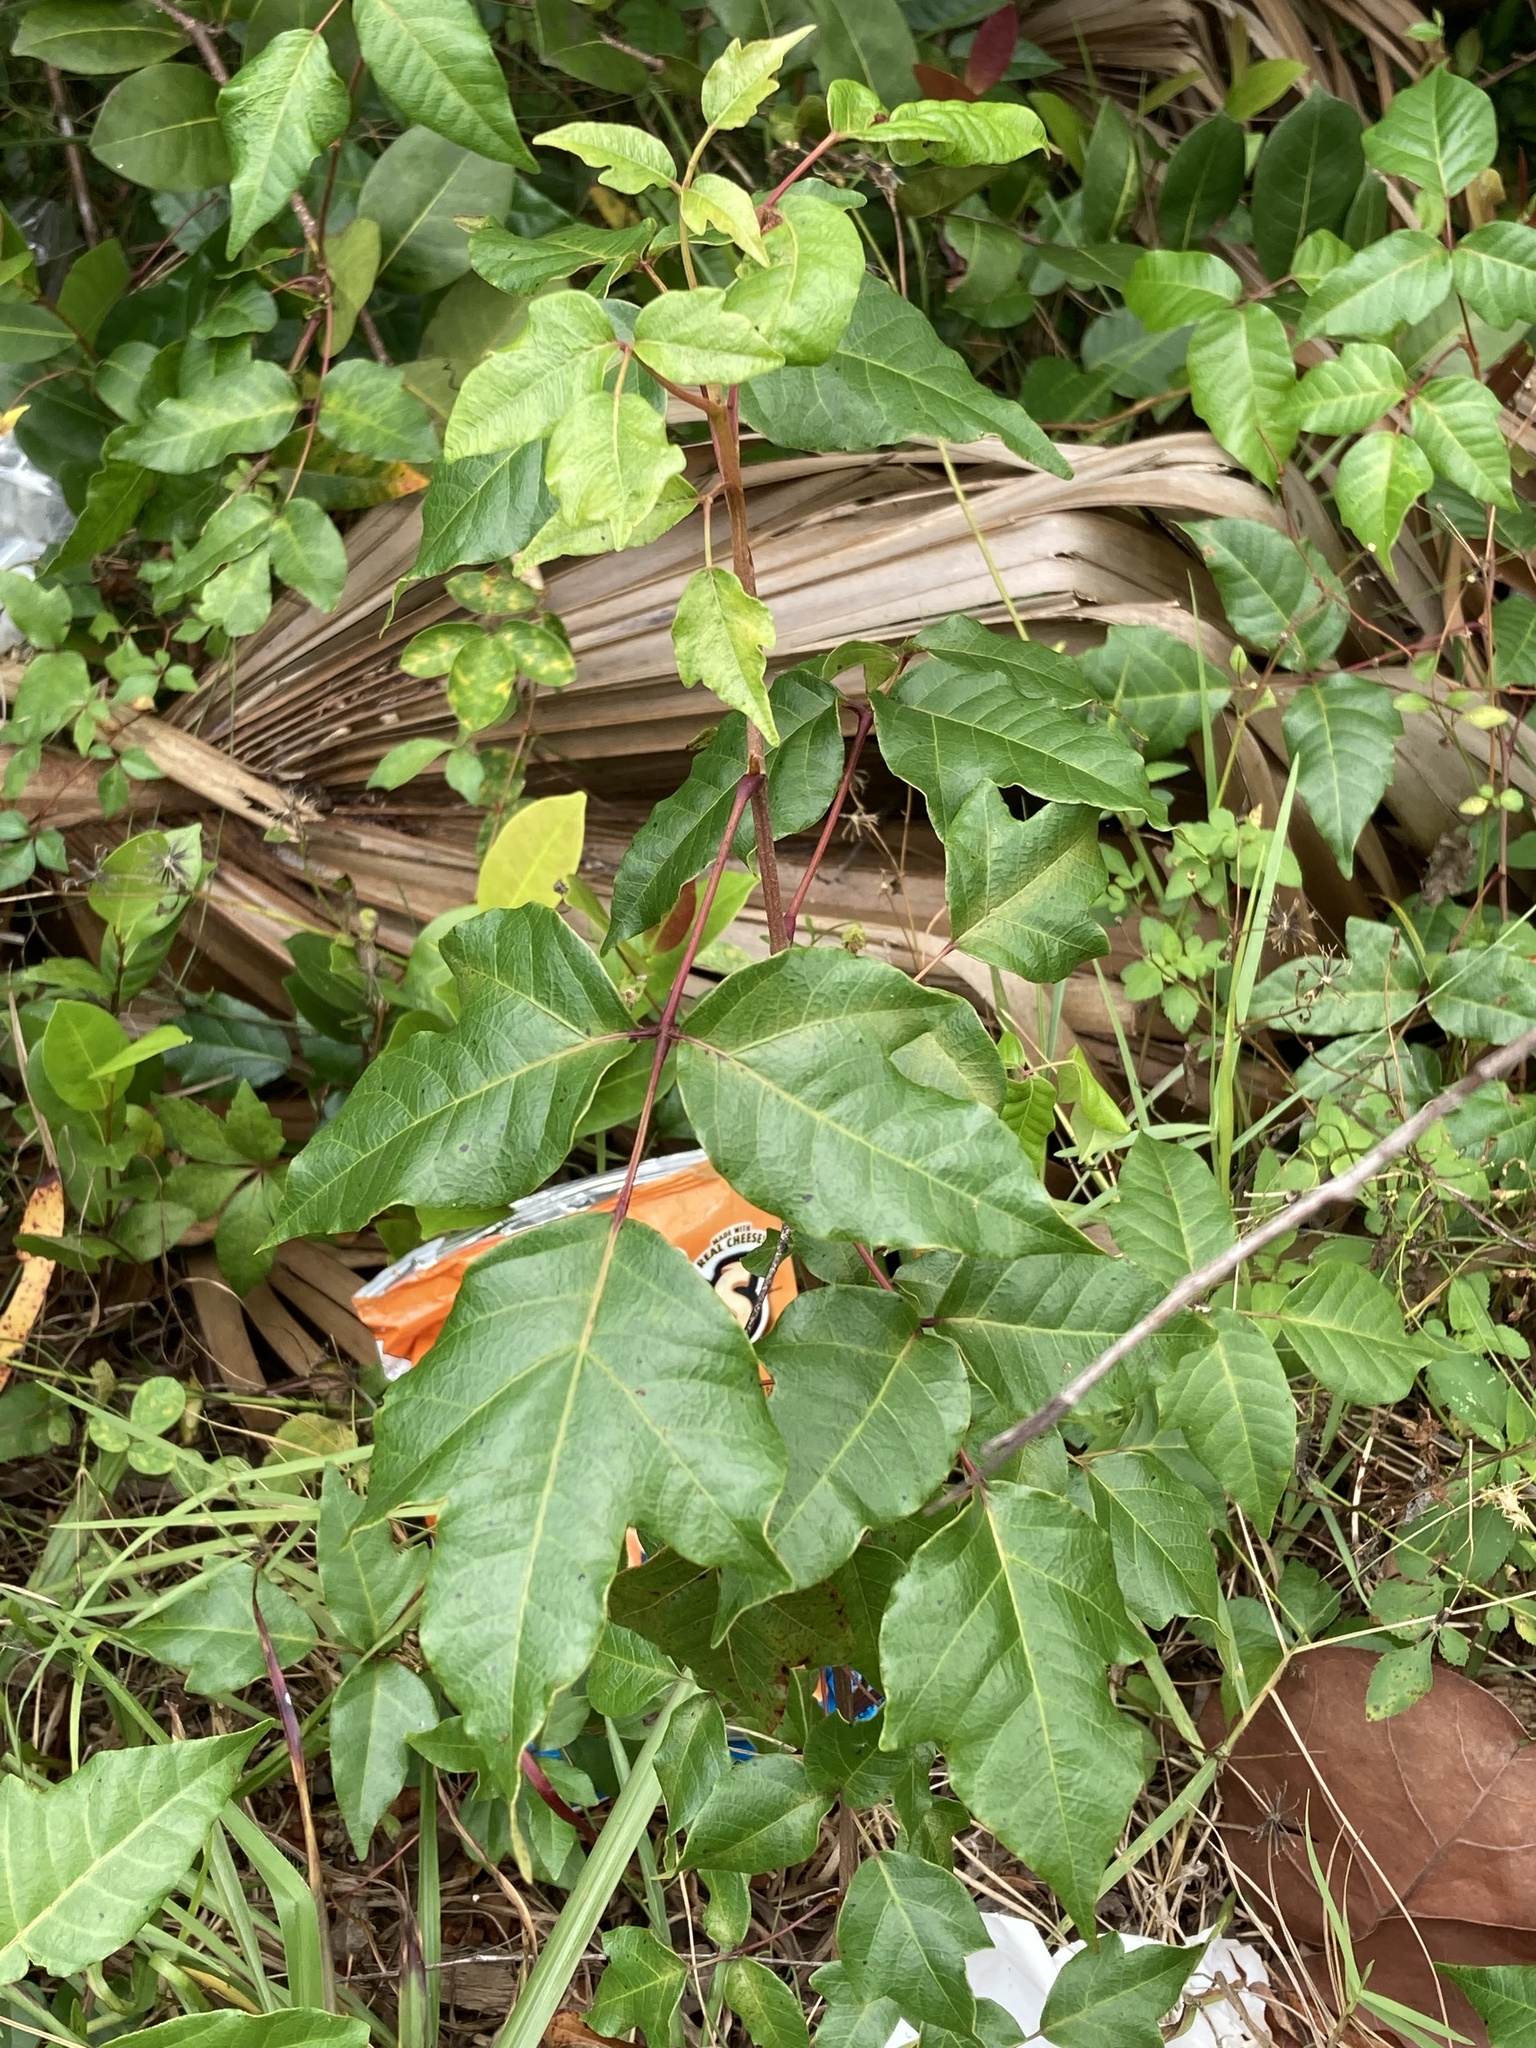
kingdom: Plantae
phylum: Tracheophyta
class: Magnoliopsida
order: Sapindales
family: Anacardiaceae
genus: Toxicodendron
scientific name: Toxicodendron radicans
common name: Poison ivy
